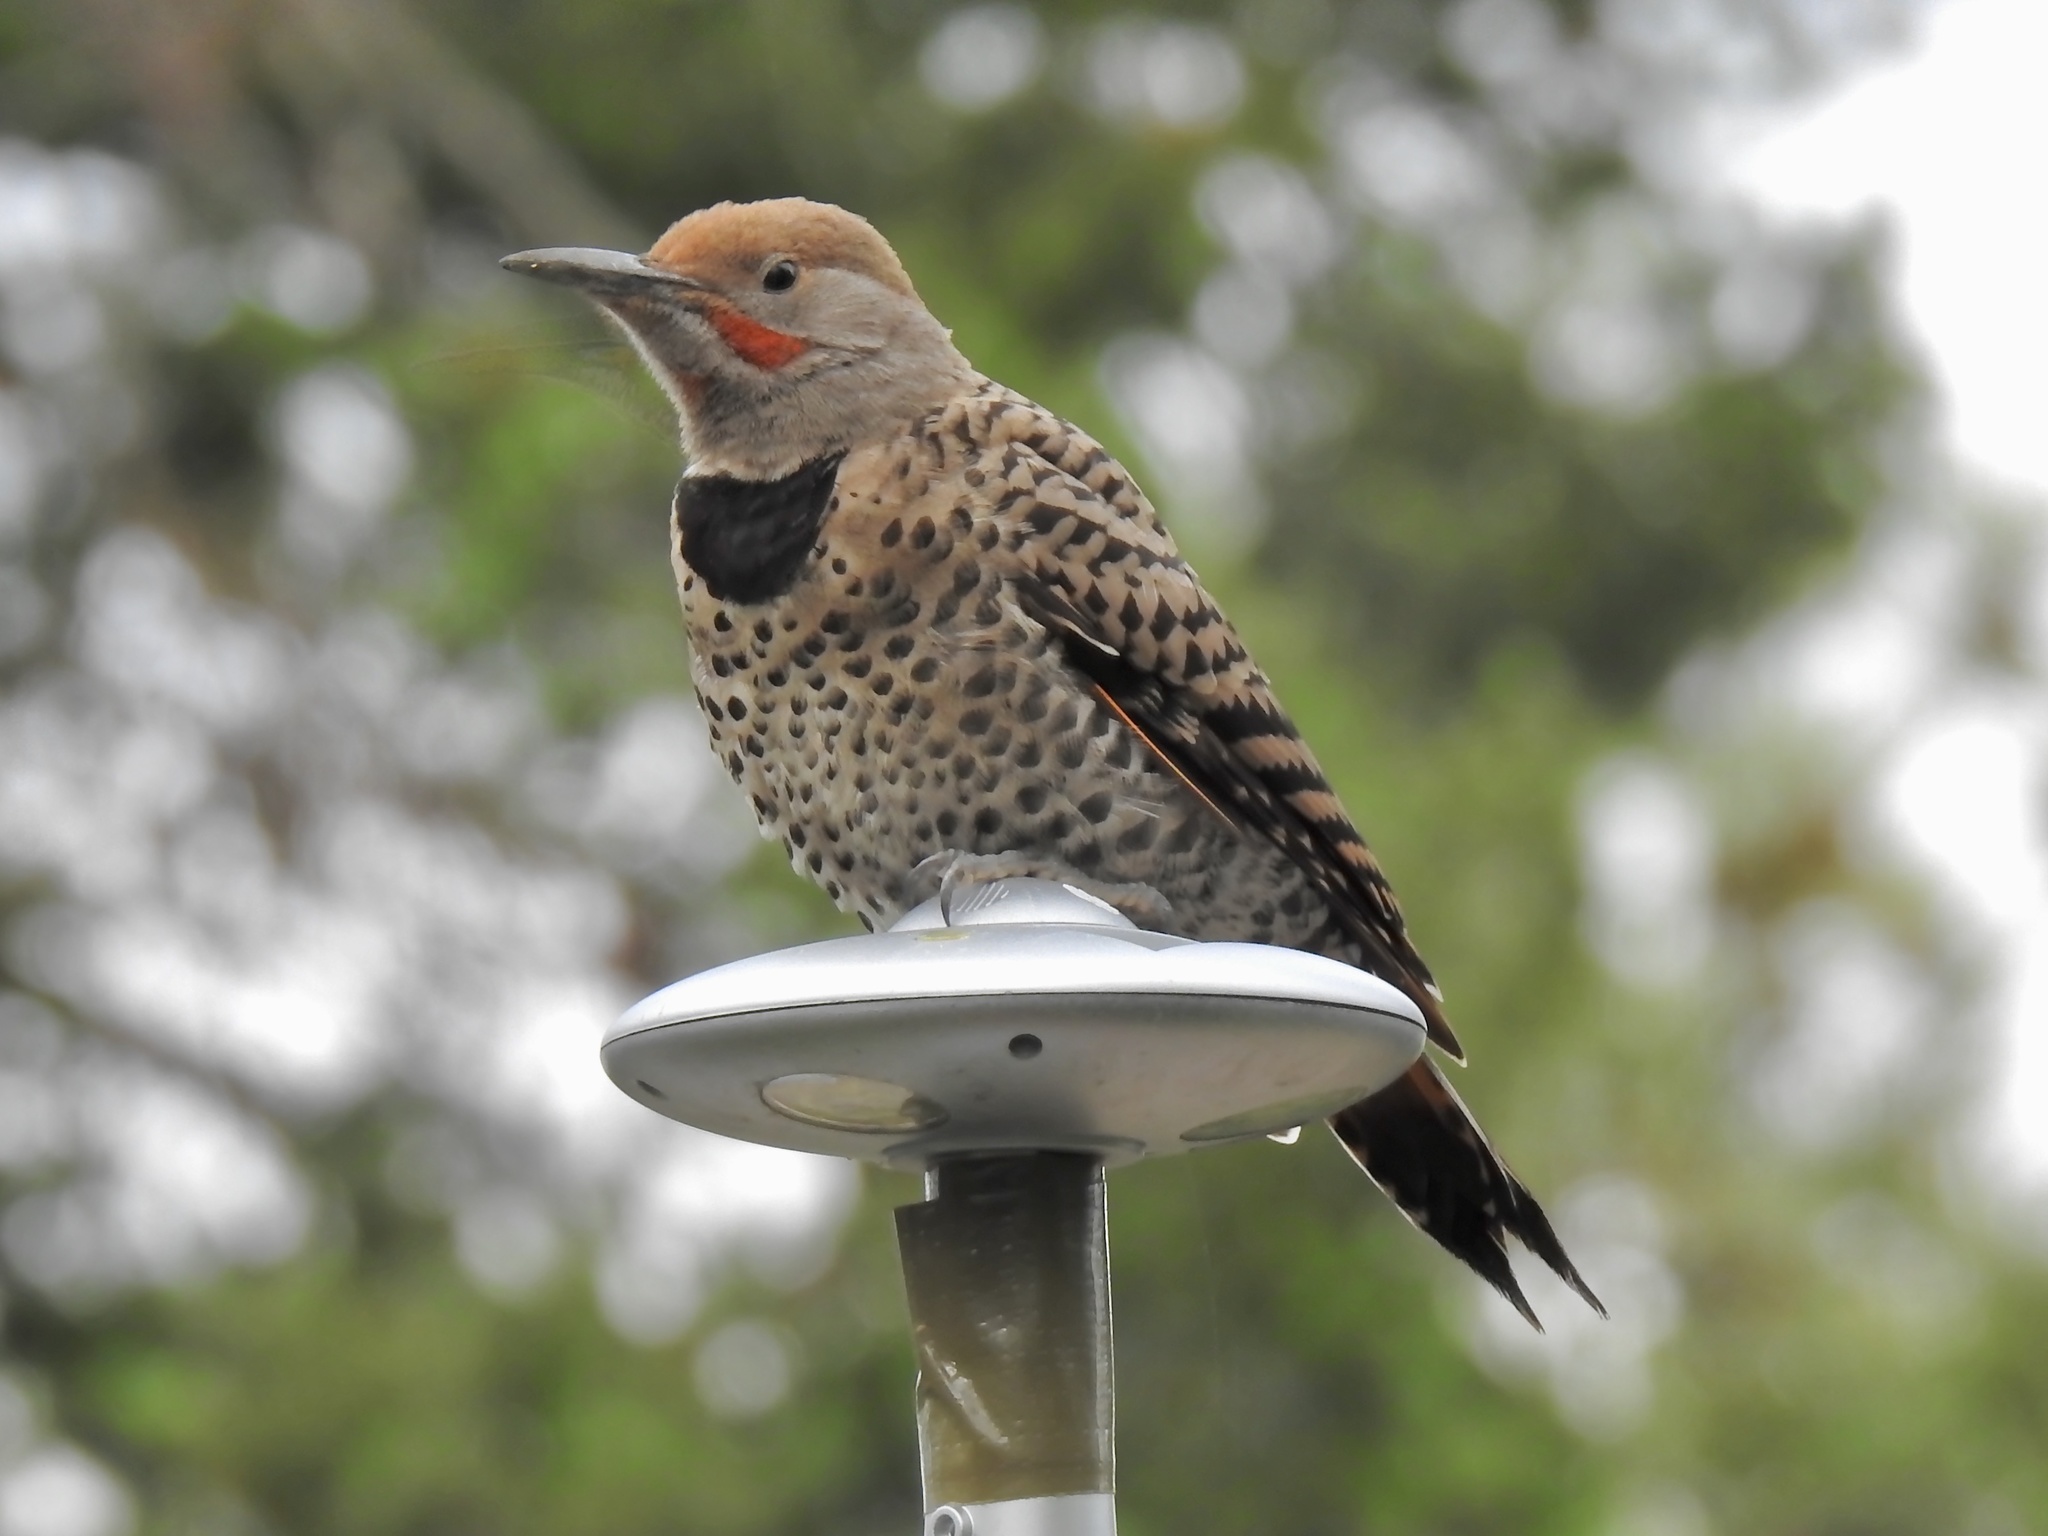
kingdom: Animalia
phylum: Chordata
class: Aves
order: Piciformes
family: Picidae
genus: Colaptes
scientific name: Colaptes auratus
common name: Northern flicker
